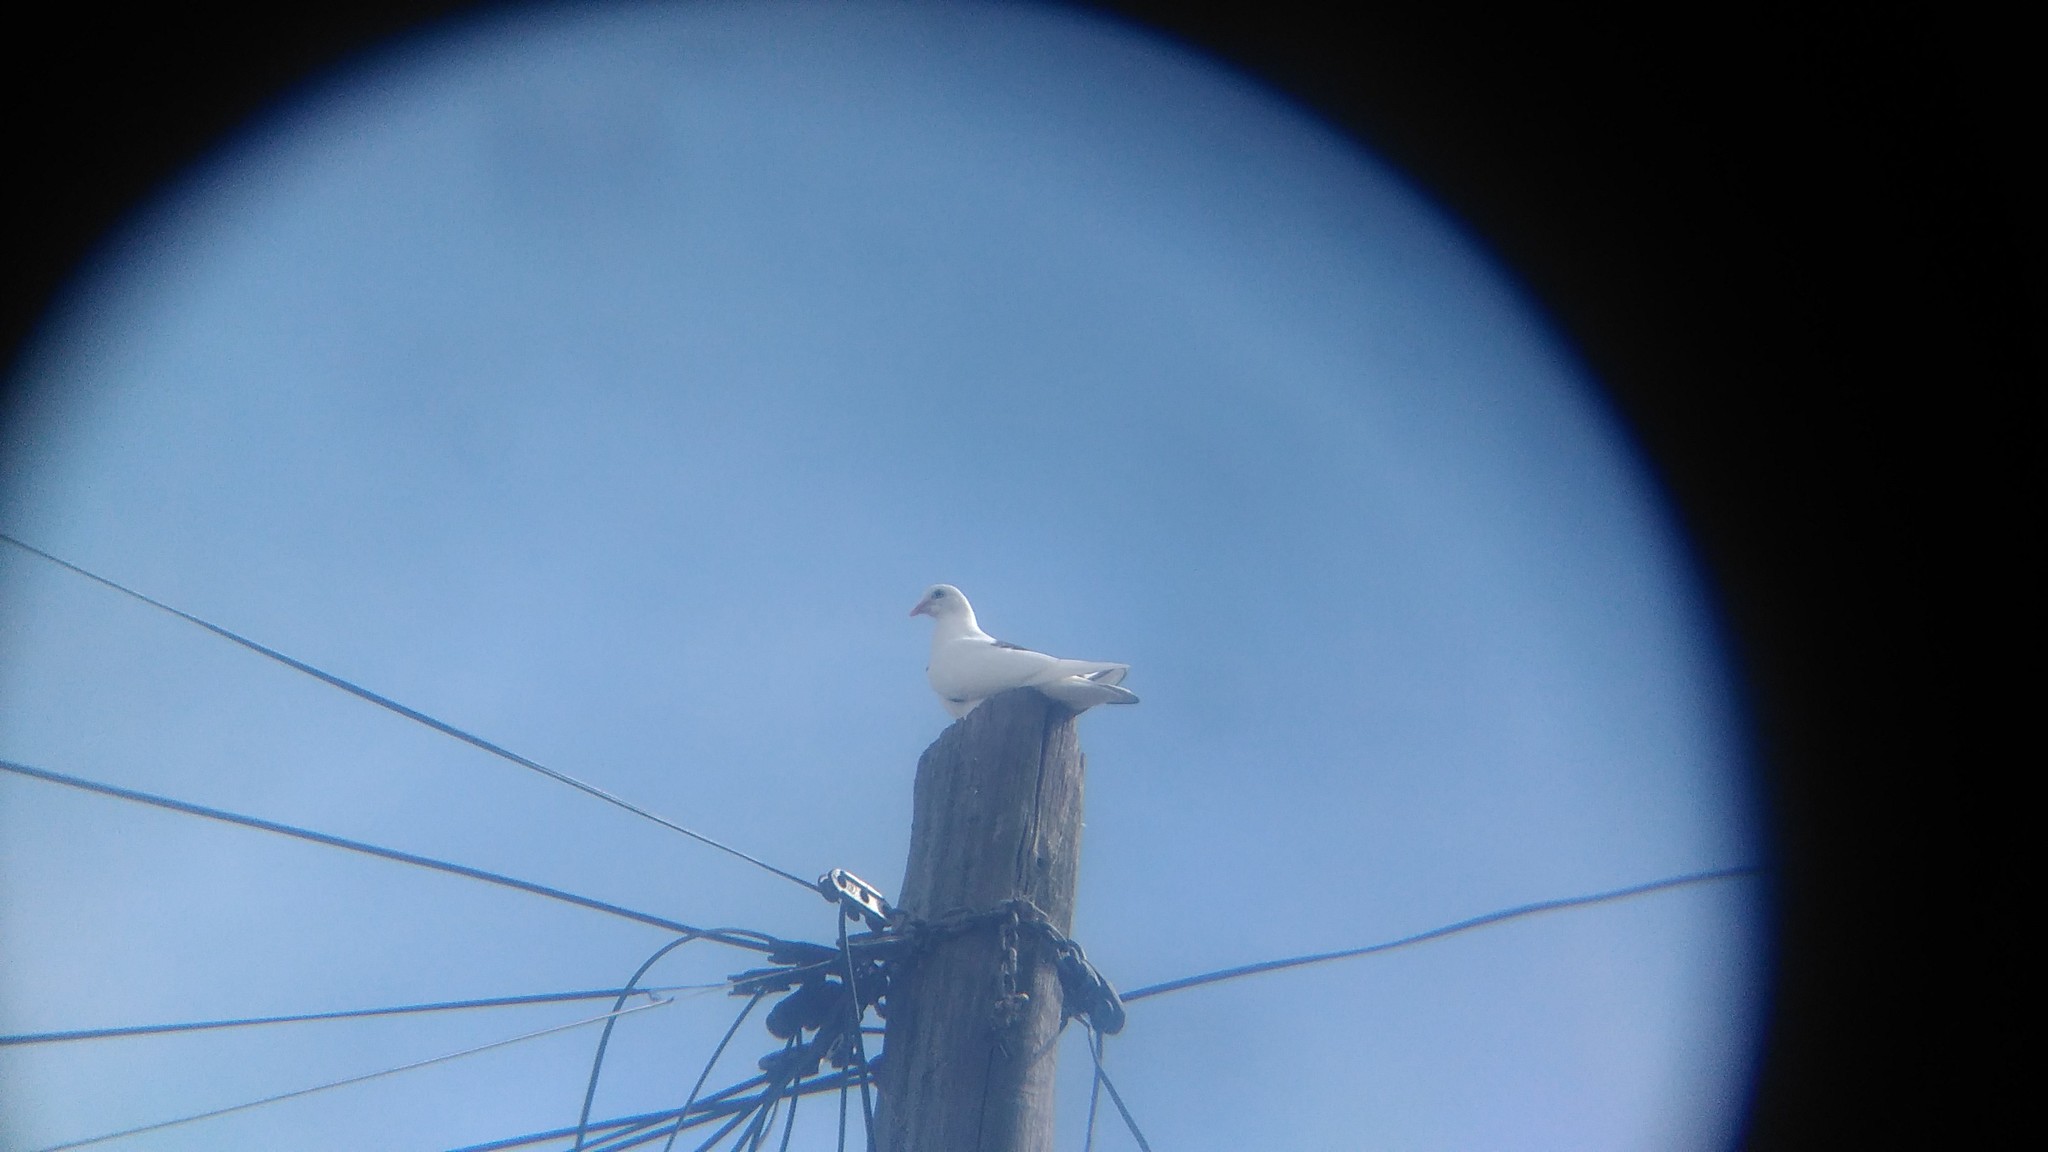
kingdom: Animalia
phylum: Chordata
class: Aves
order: Columbiformes
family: Columbidae
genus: Columba
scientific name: Columba livia
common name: Rock pigeon
